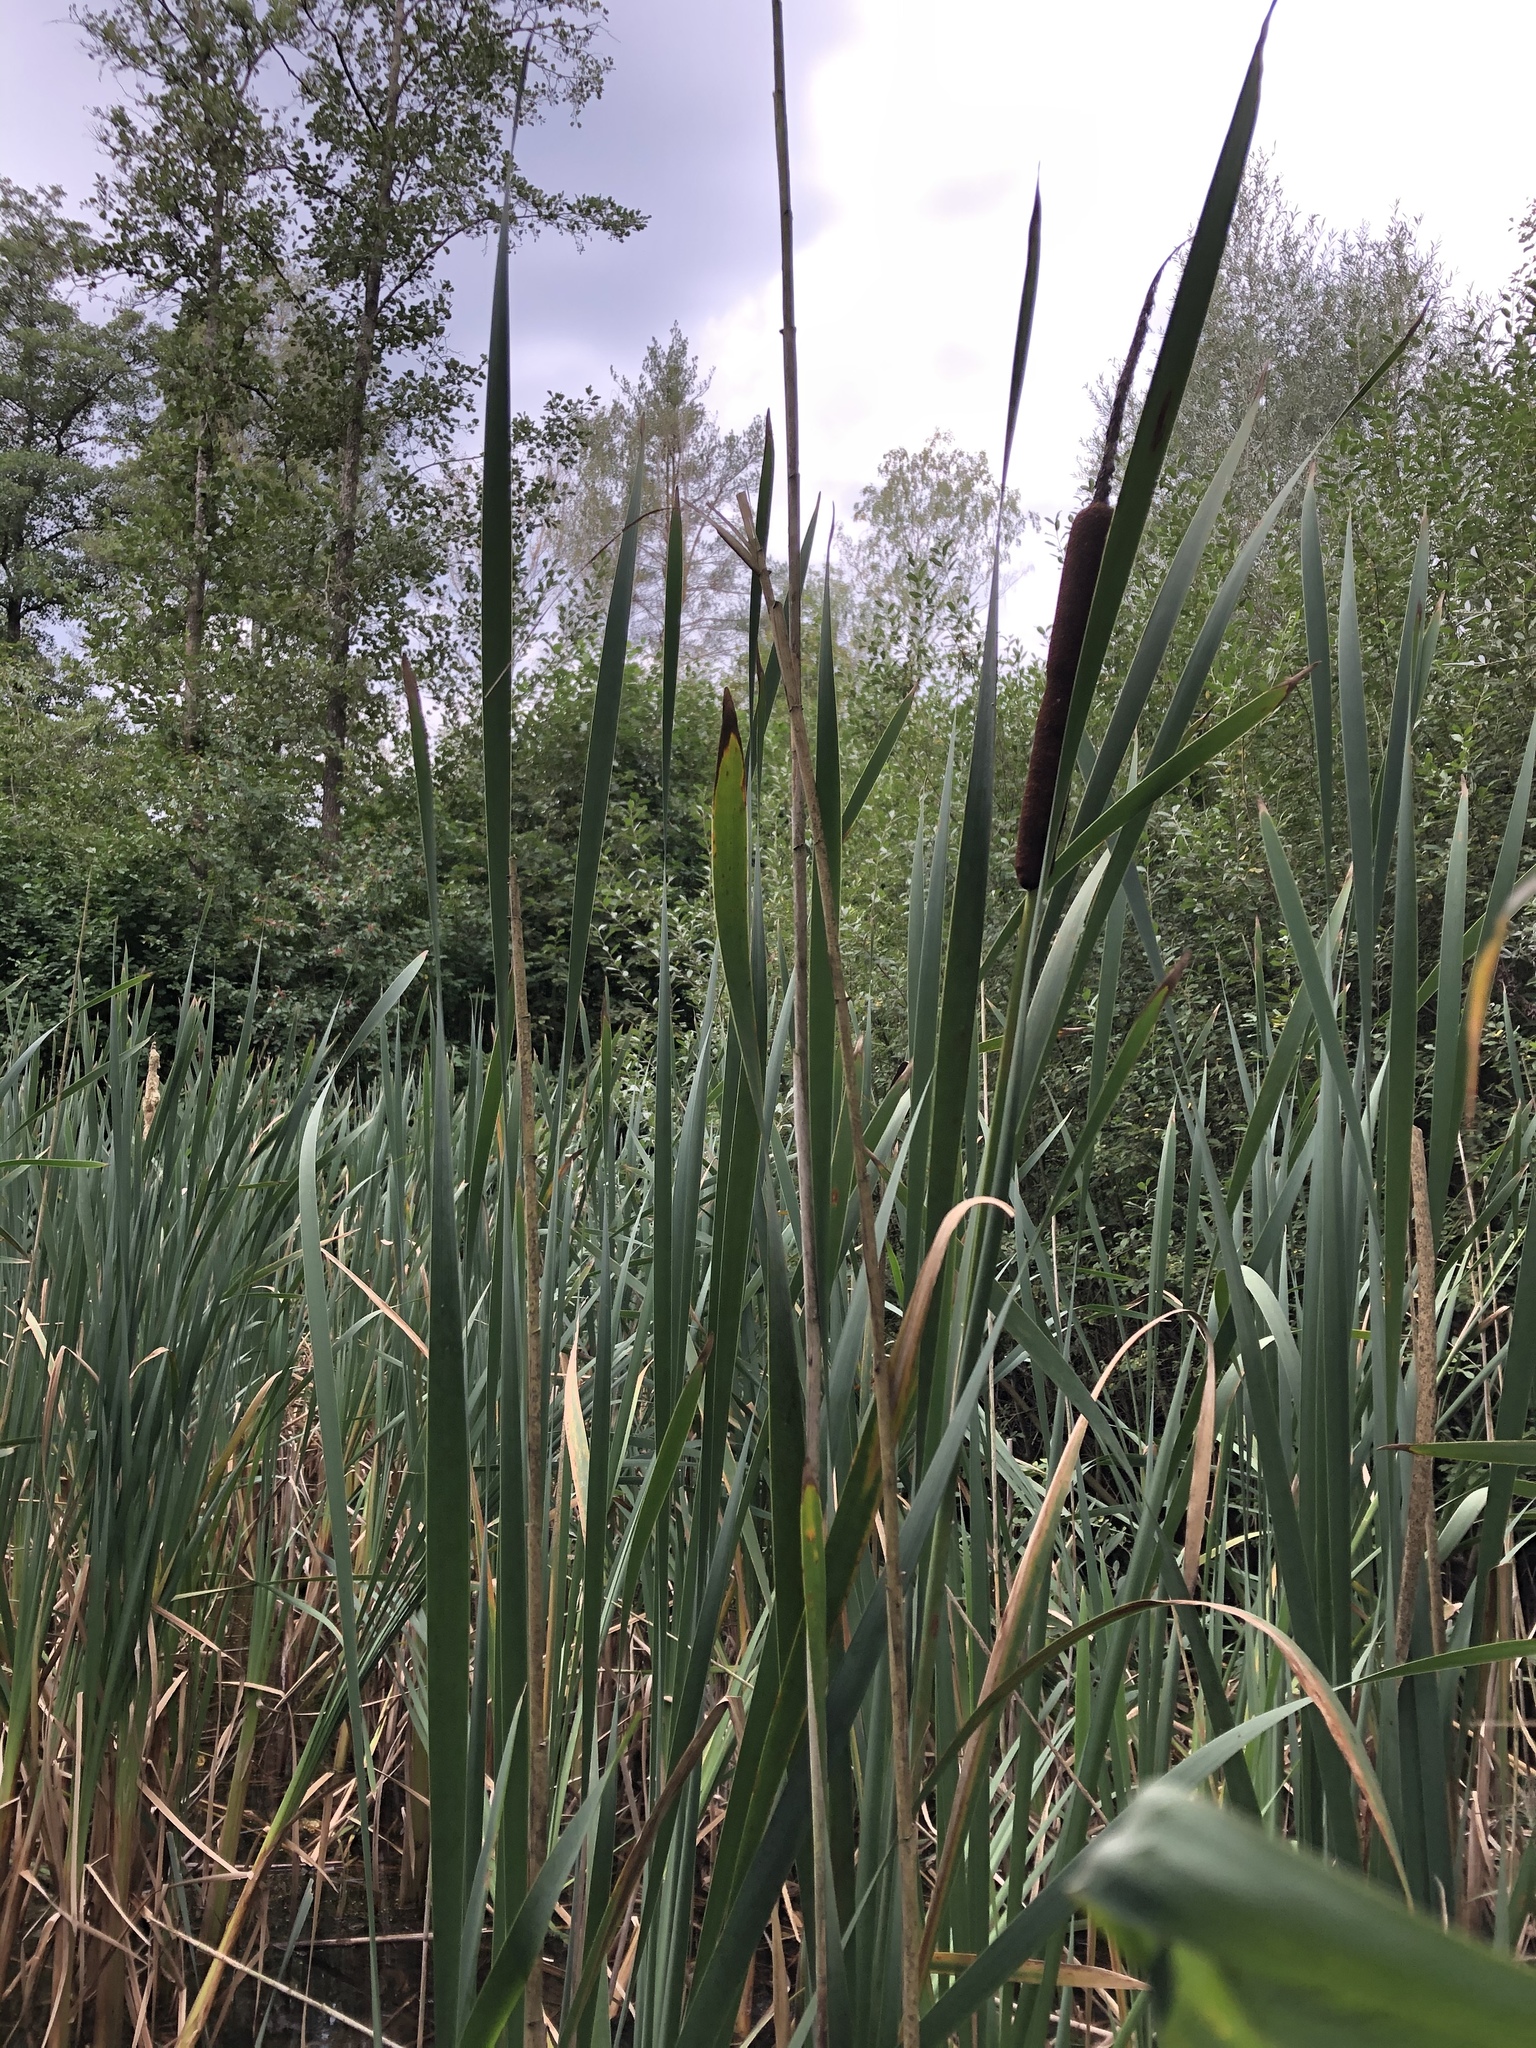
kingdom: Plantae
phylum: Tracheophyta
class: Liliopsida
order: Poales
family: Typhaceae
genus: Typha
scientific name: Typha latifolia
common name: Broadleaf cattail
